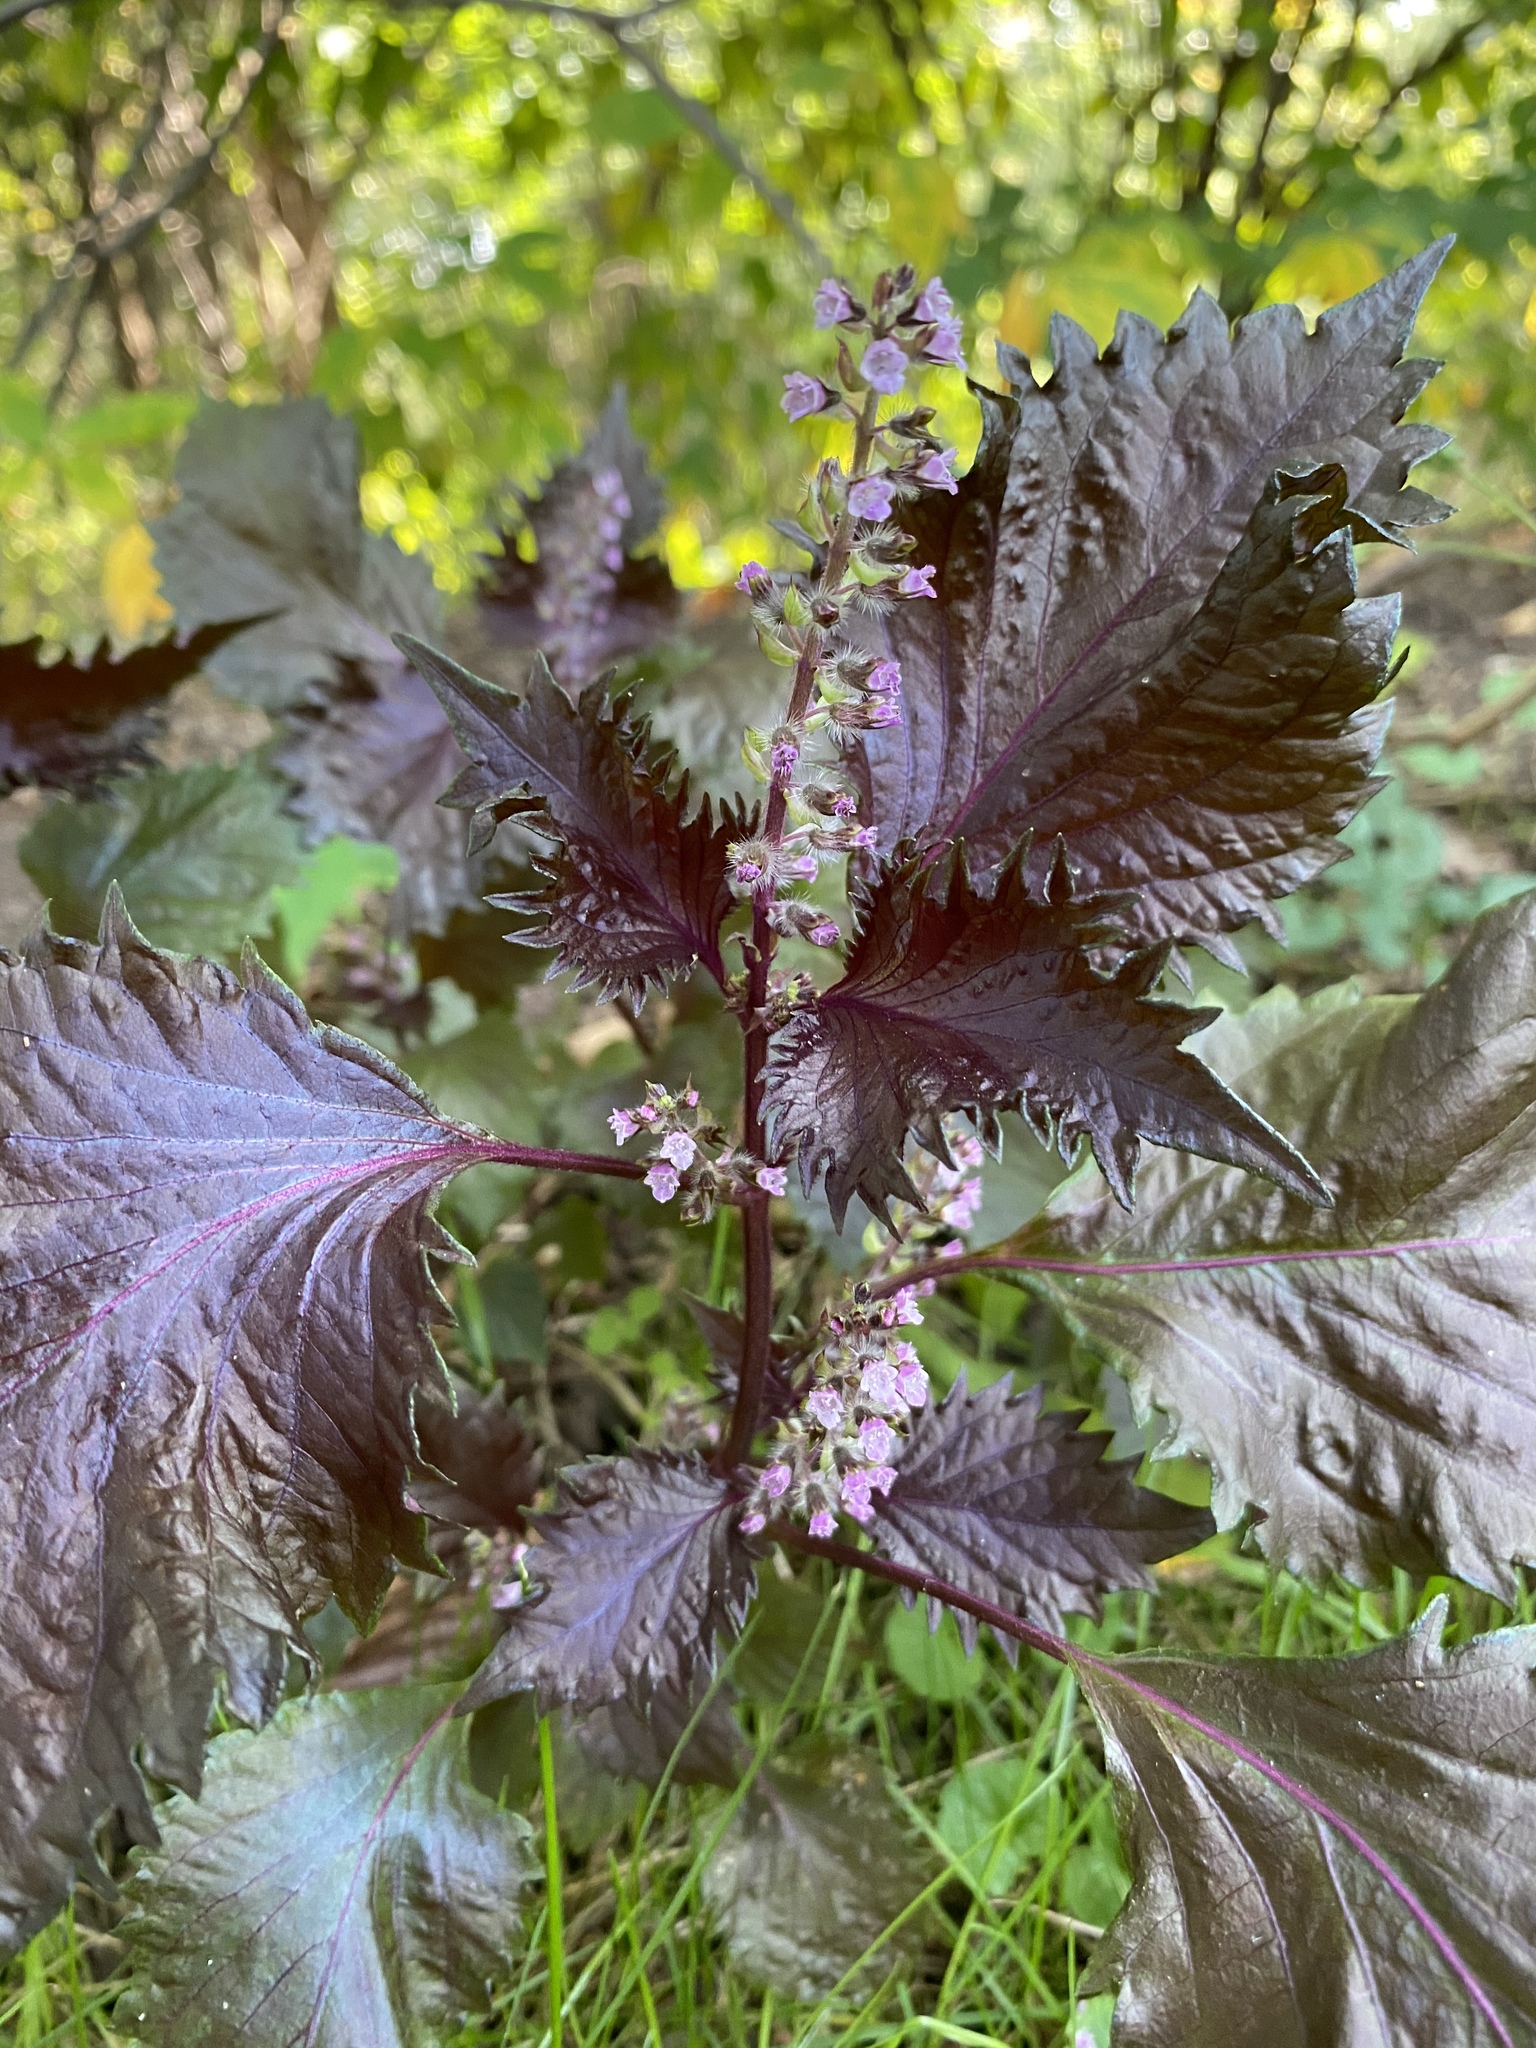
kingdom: Plantae
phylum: Tracheophyta
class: Magnoliopsida
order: Lamiales
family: Lamiaceae
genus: Perilla
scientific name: Perilla frutescens
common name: Perilla
